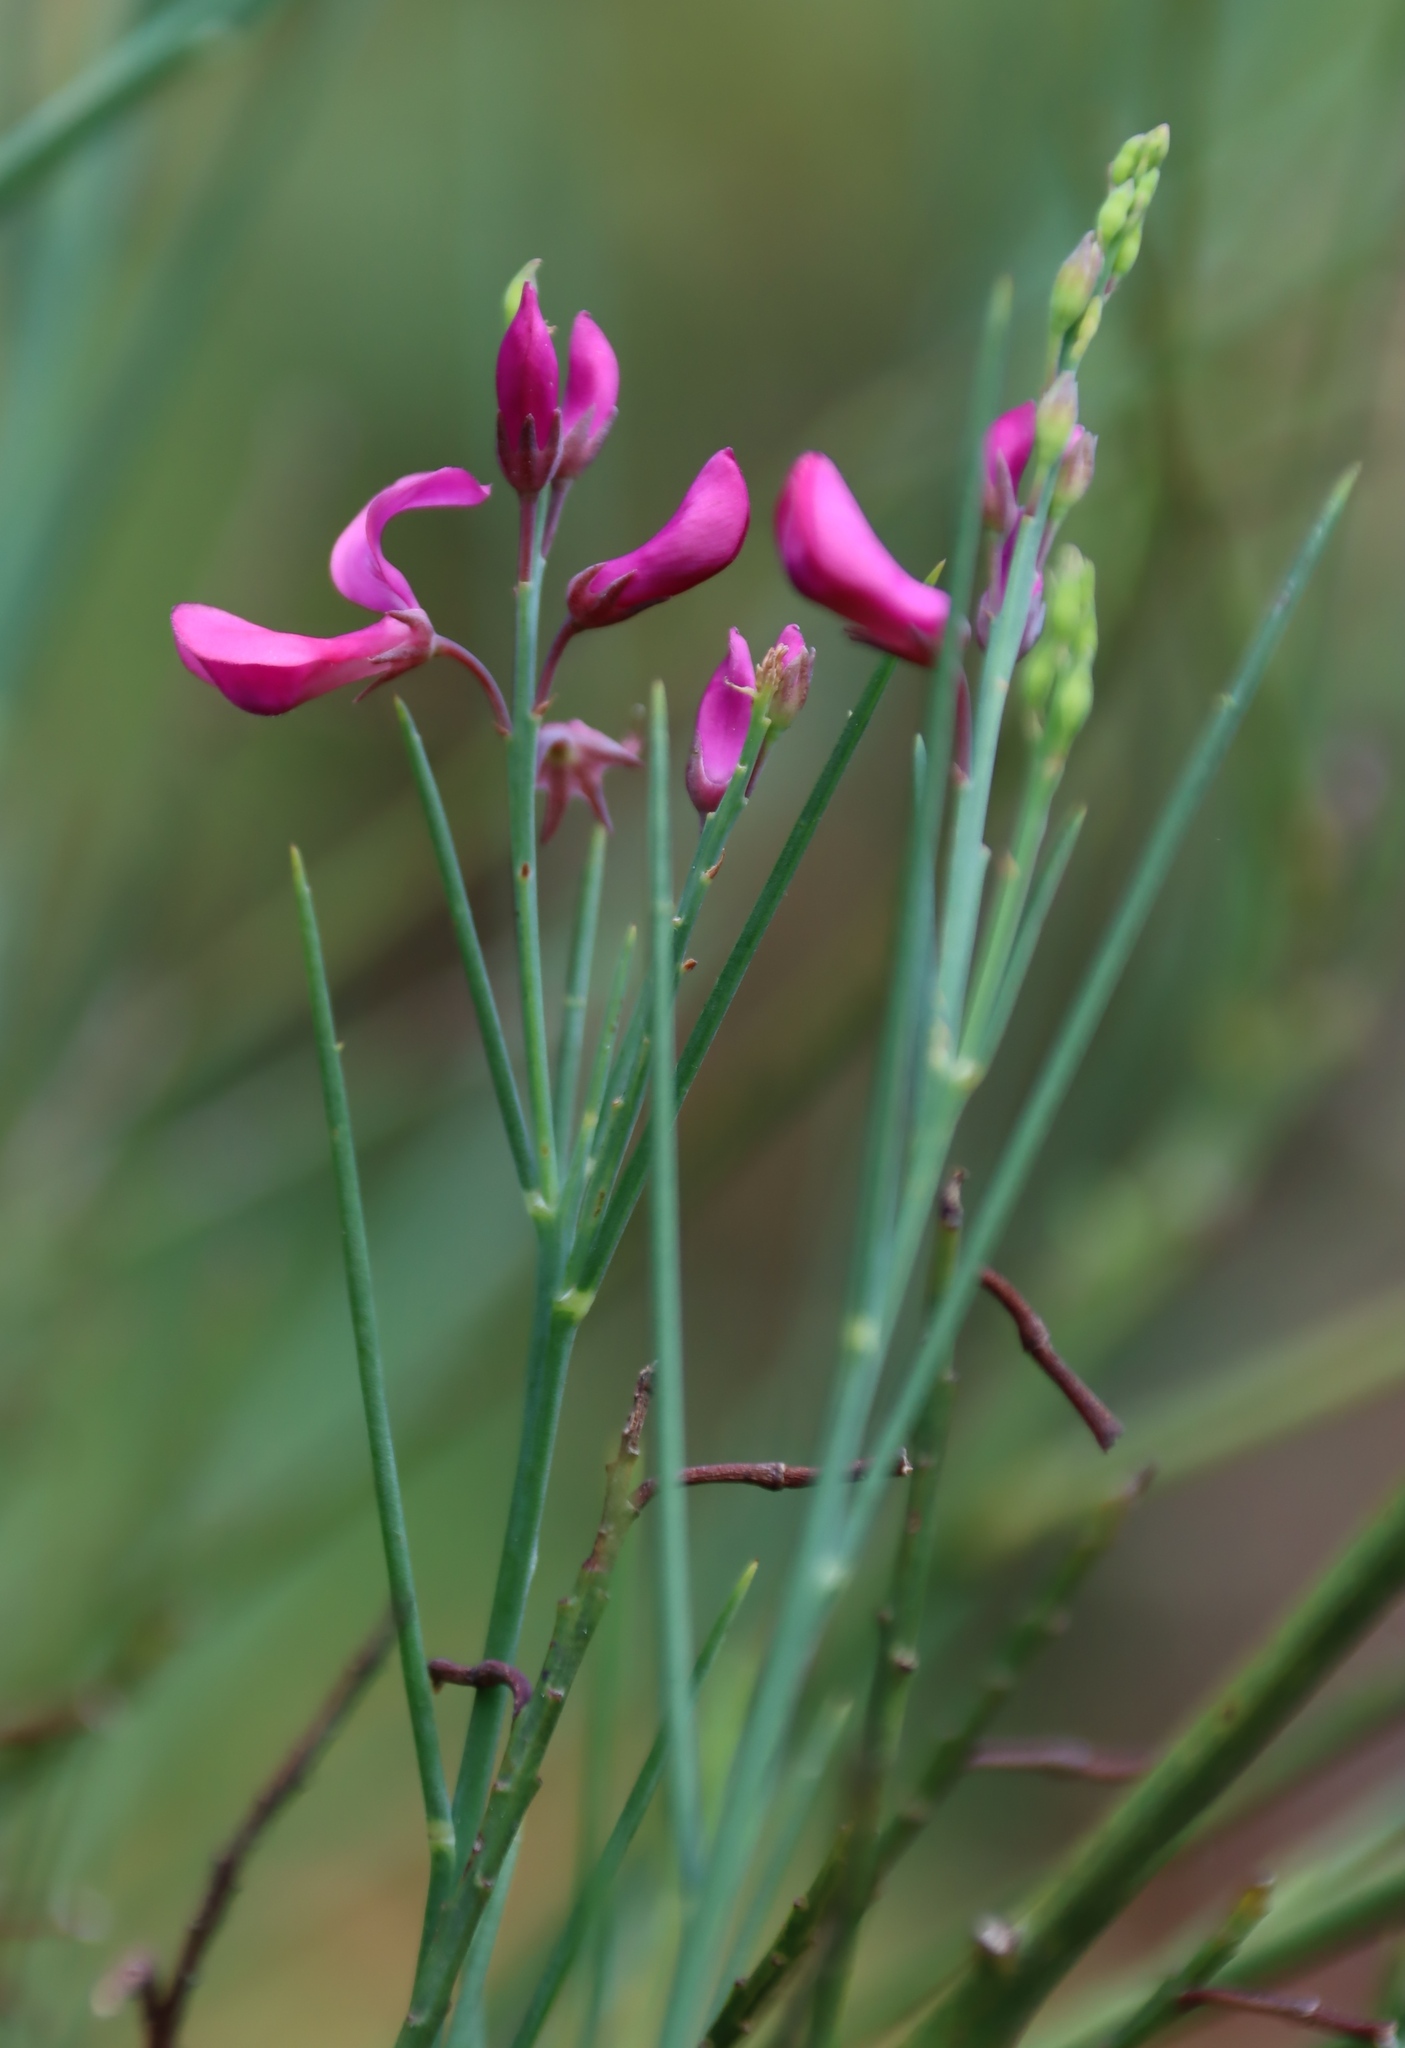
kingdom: Plantae
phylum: Tracheophyta
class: Magnoliopsida
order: Fabales
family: Fabaceae
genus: Indigofera
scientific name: Indigofera filifolia
